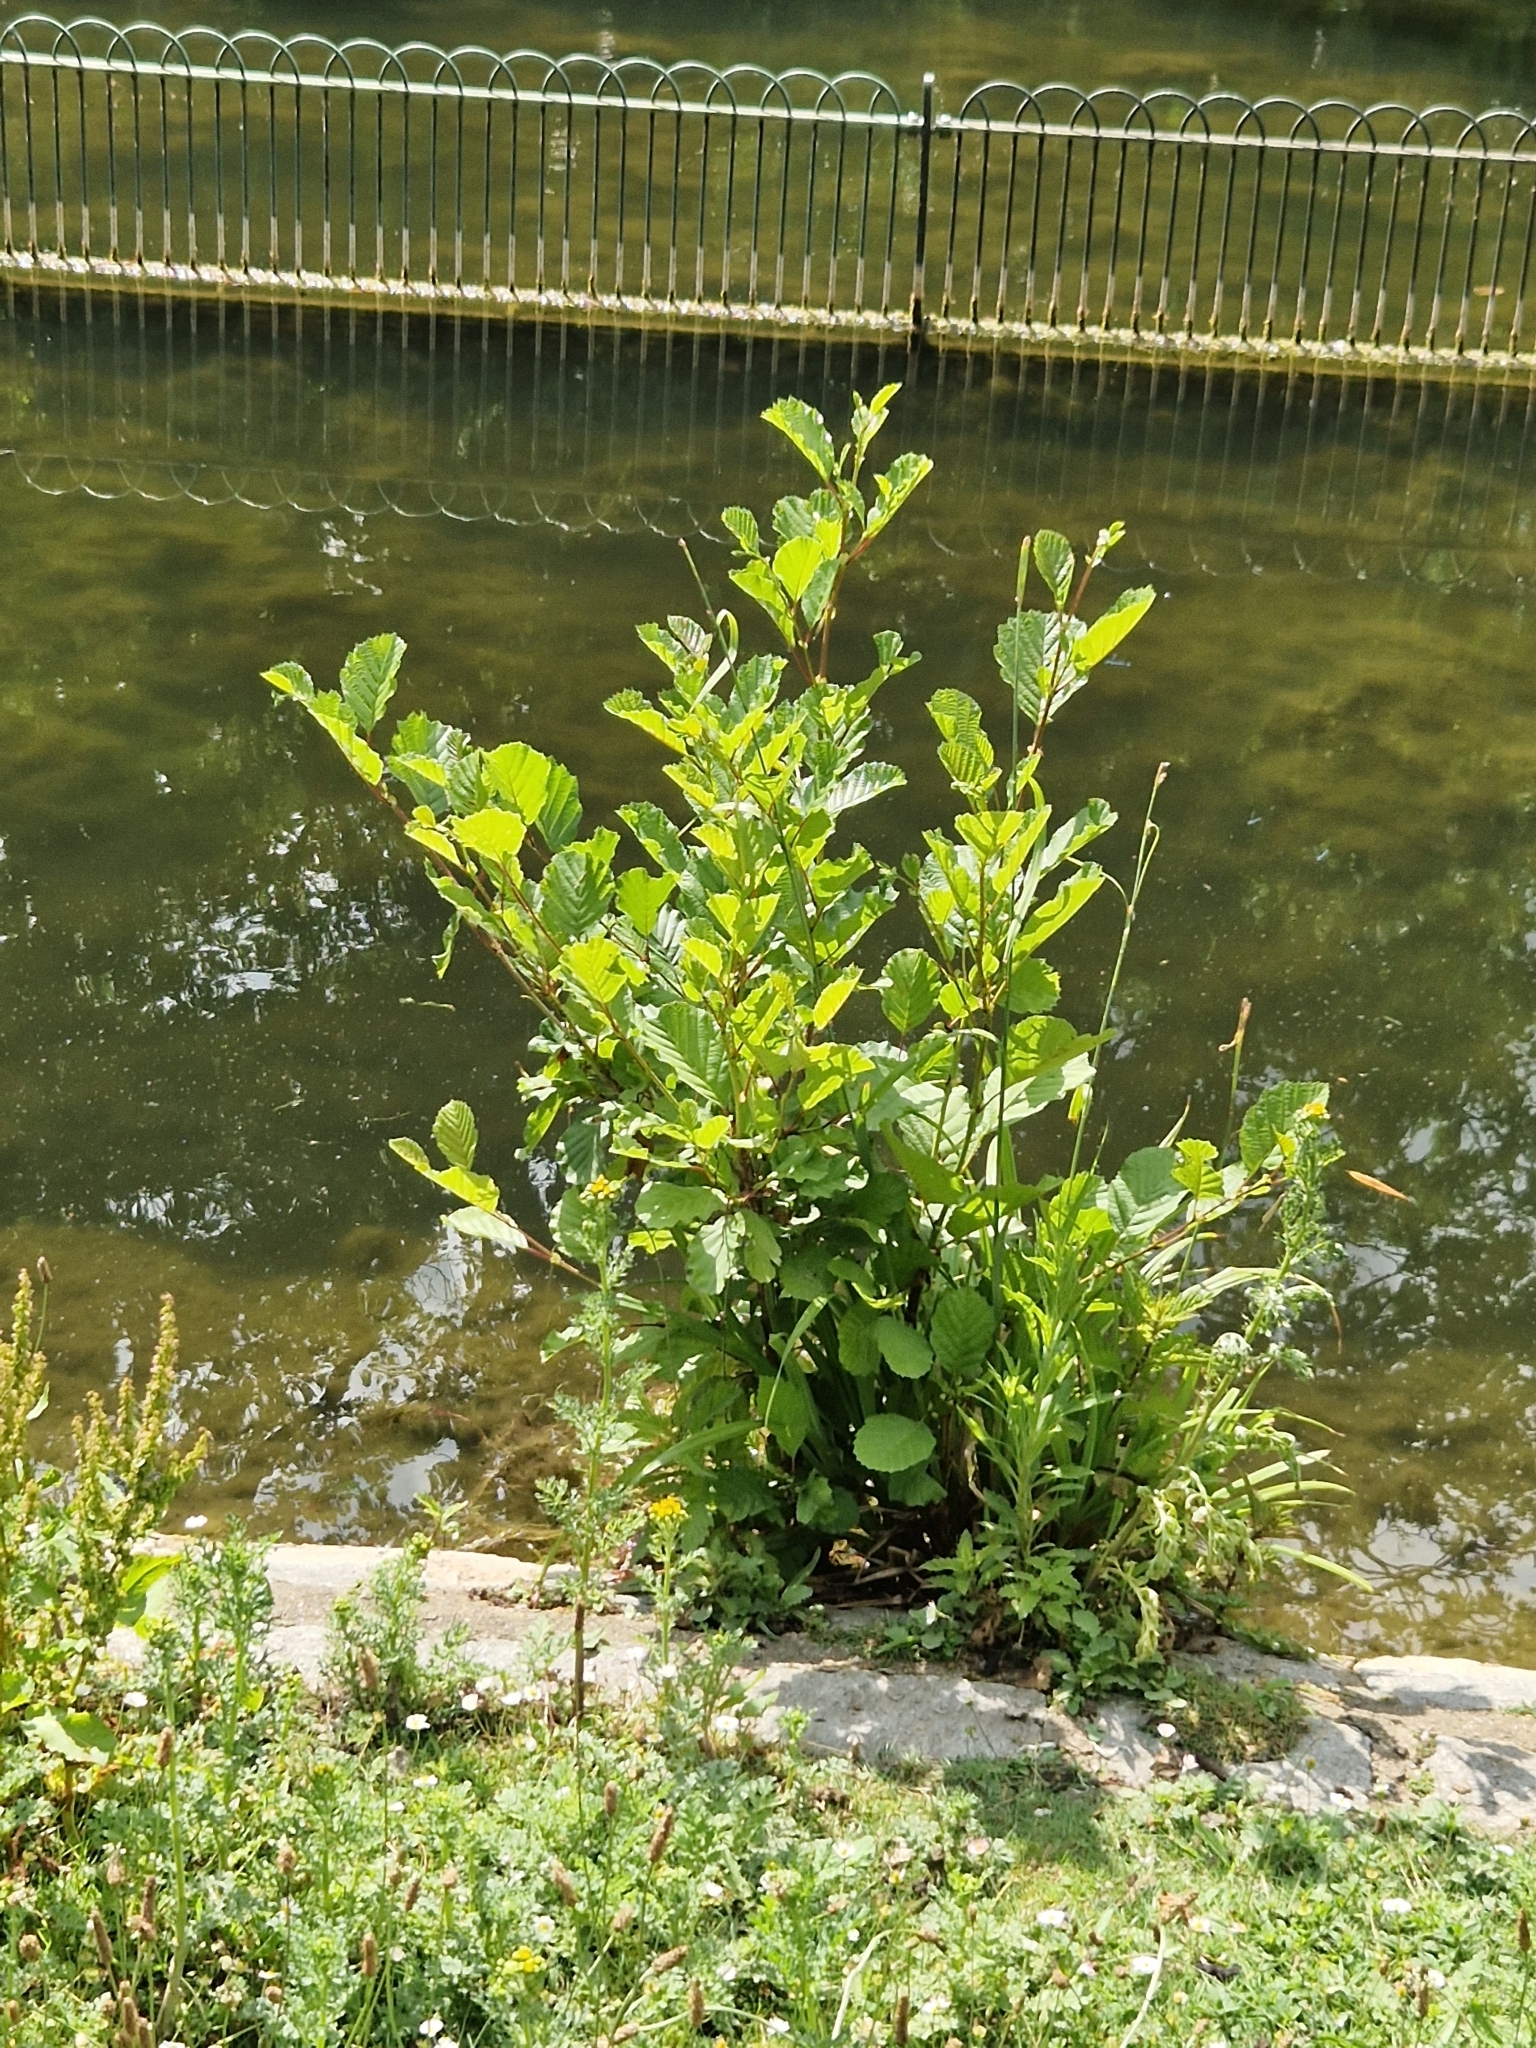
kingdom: Plantae
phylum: Tracheophyta
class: Magnoliopsida
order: Fagales
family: Betulaceae
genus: Alnus
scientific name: Alnus glutinosa
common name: Black alder
